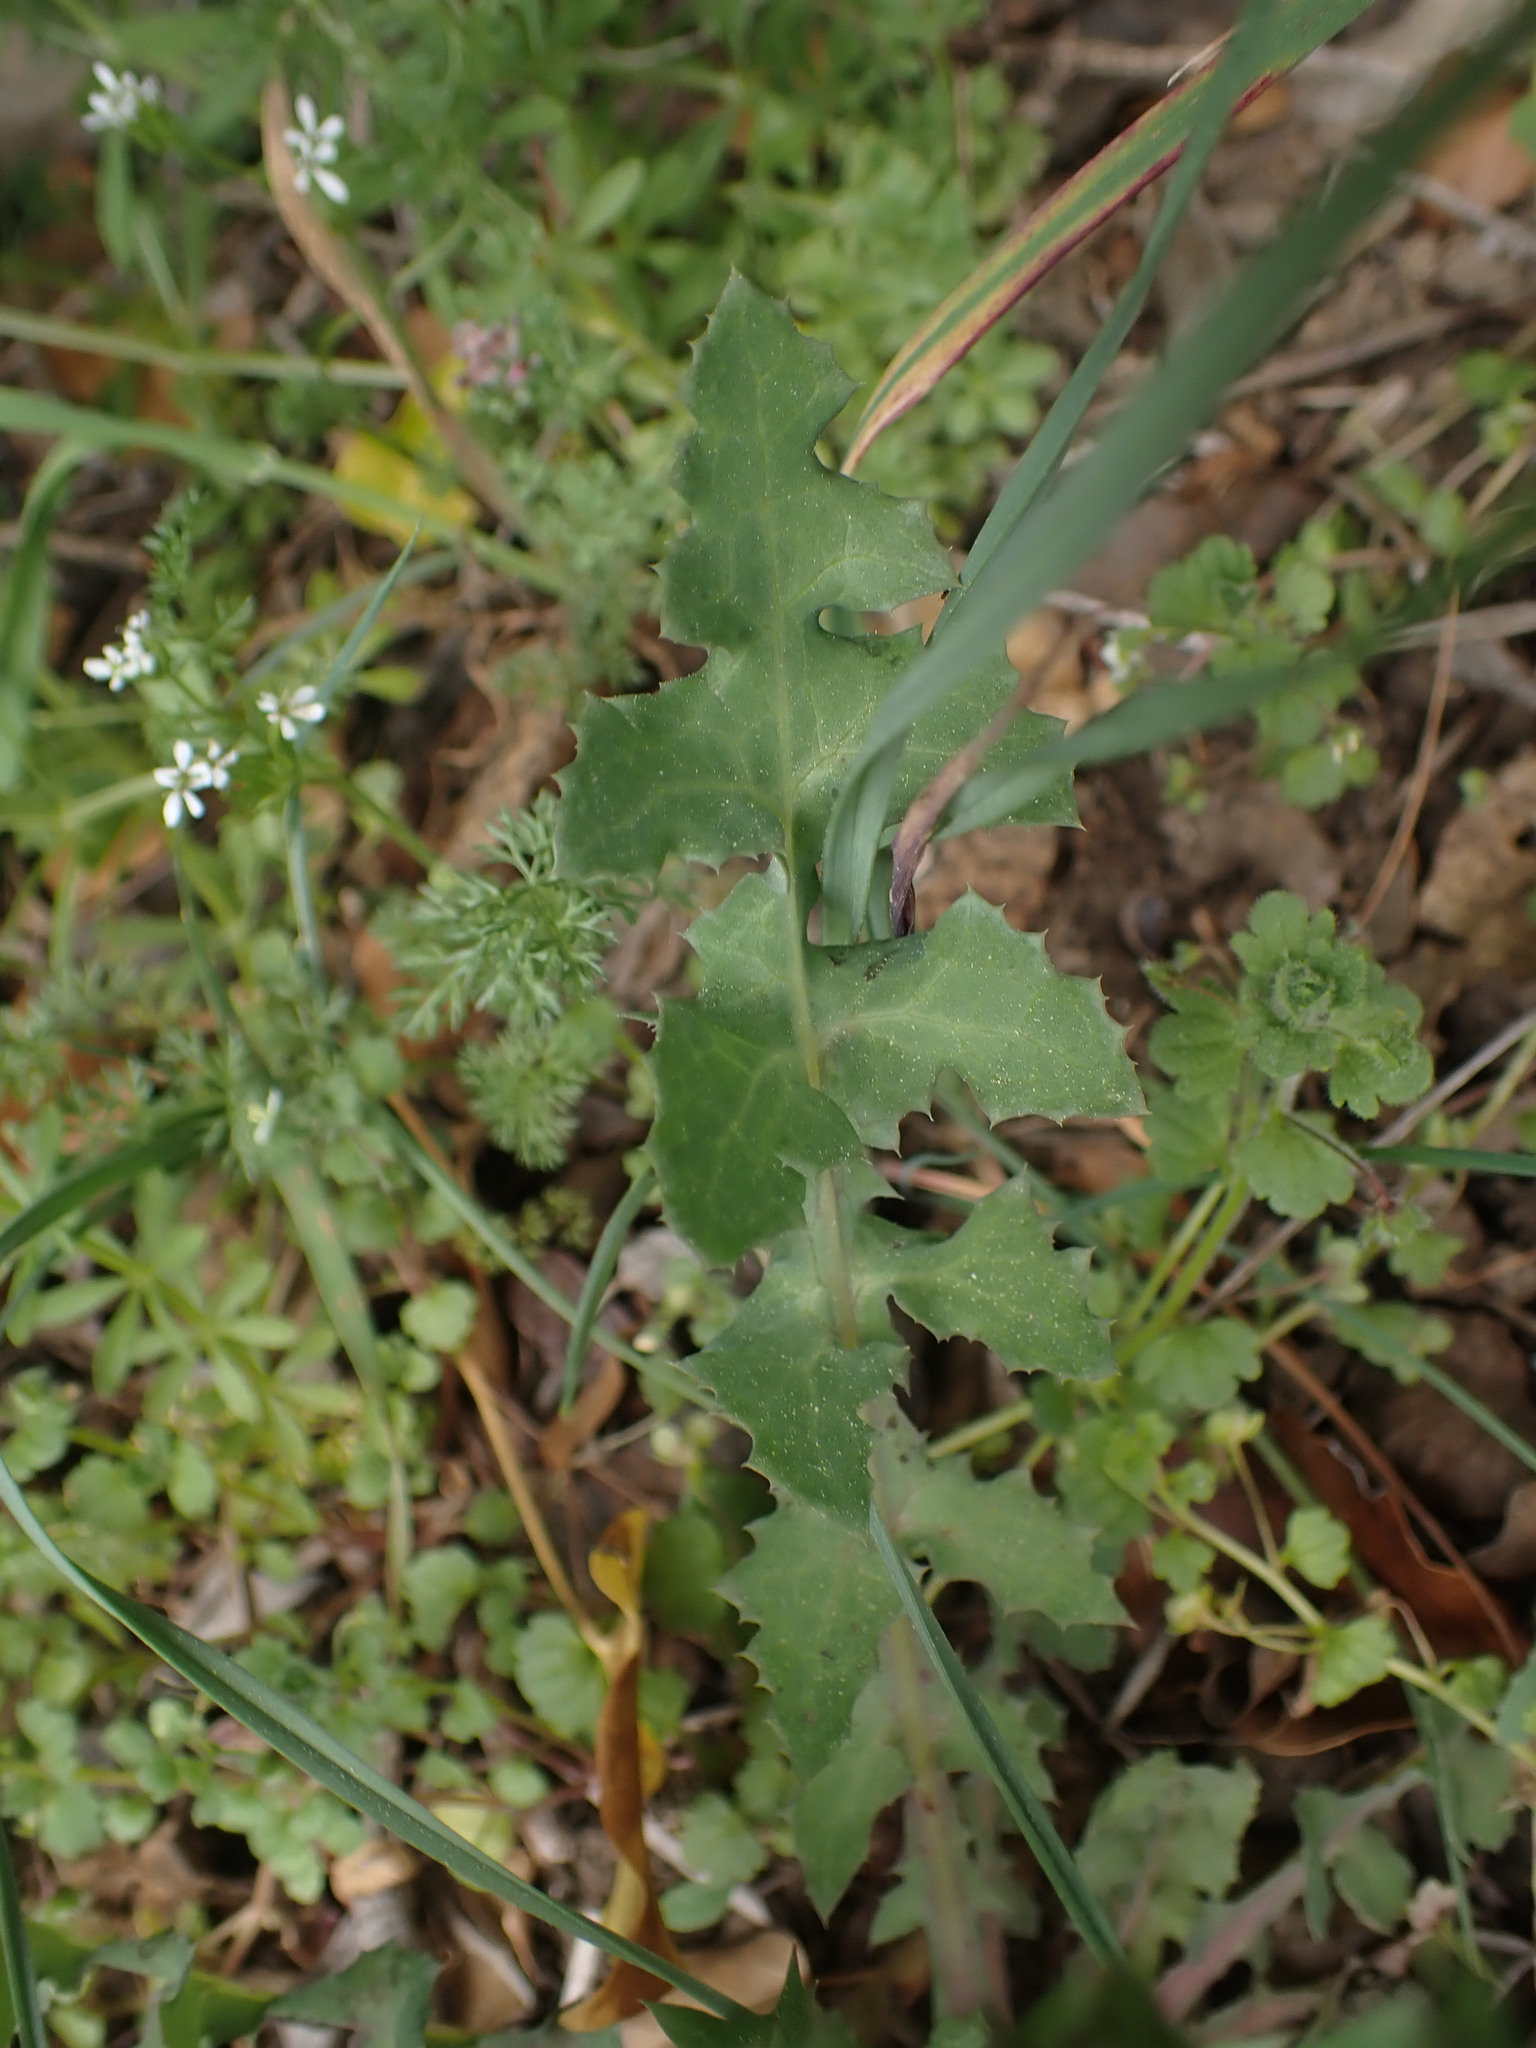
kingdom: Plantae
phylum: Tracheophyta
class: Magnoliopsida
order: Asterales
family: Asteraceae
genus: Sonchus
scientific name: Sonchus oleraceus
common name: Common sowthistle
